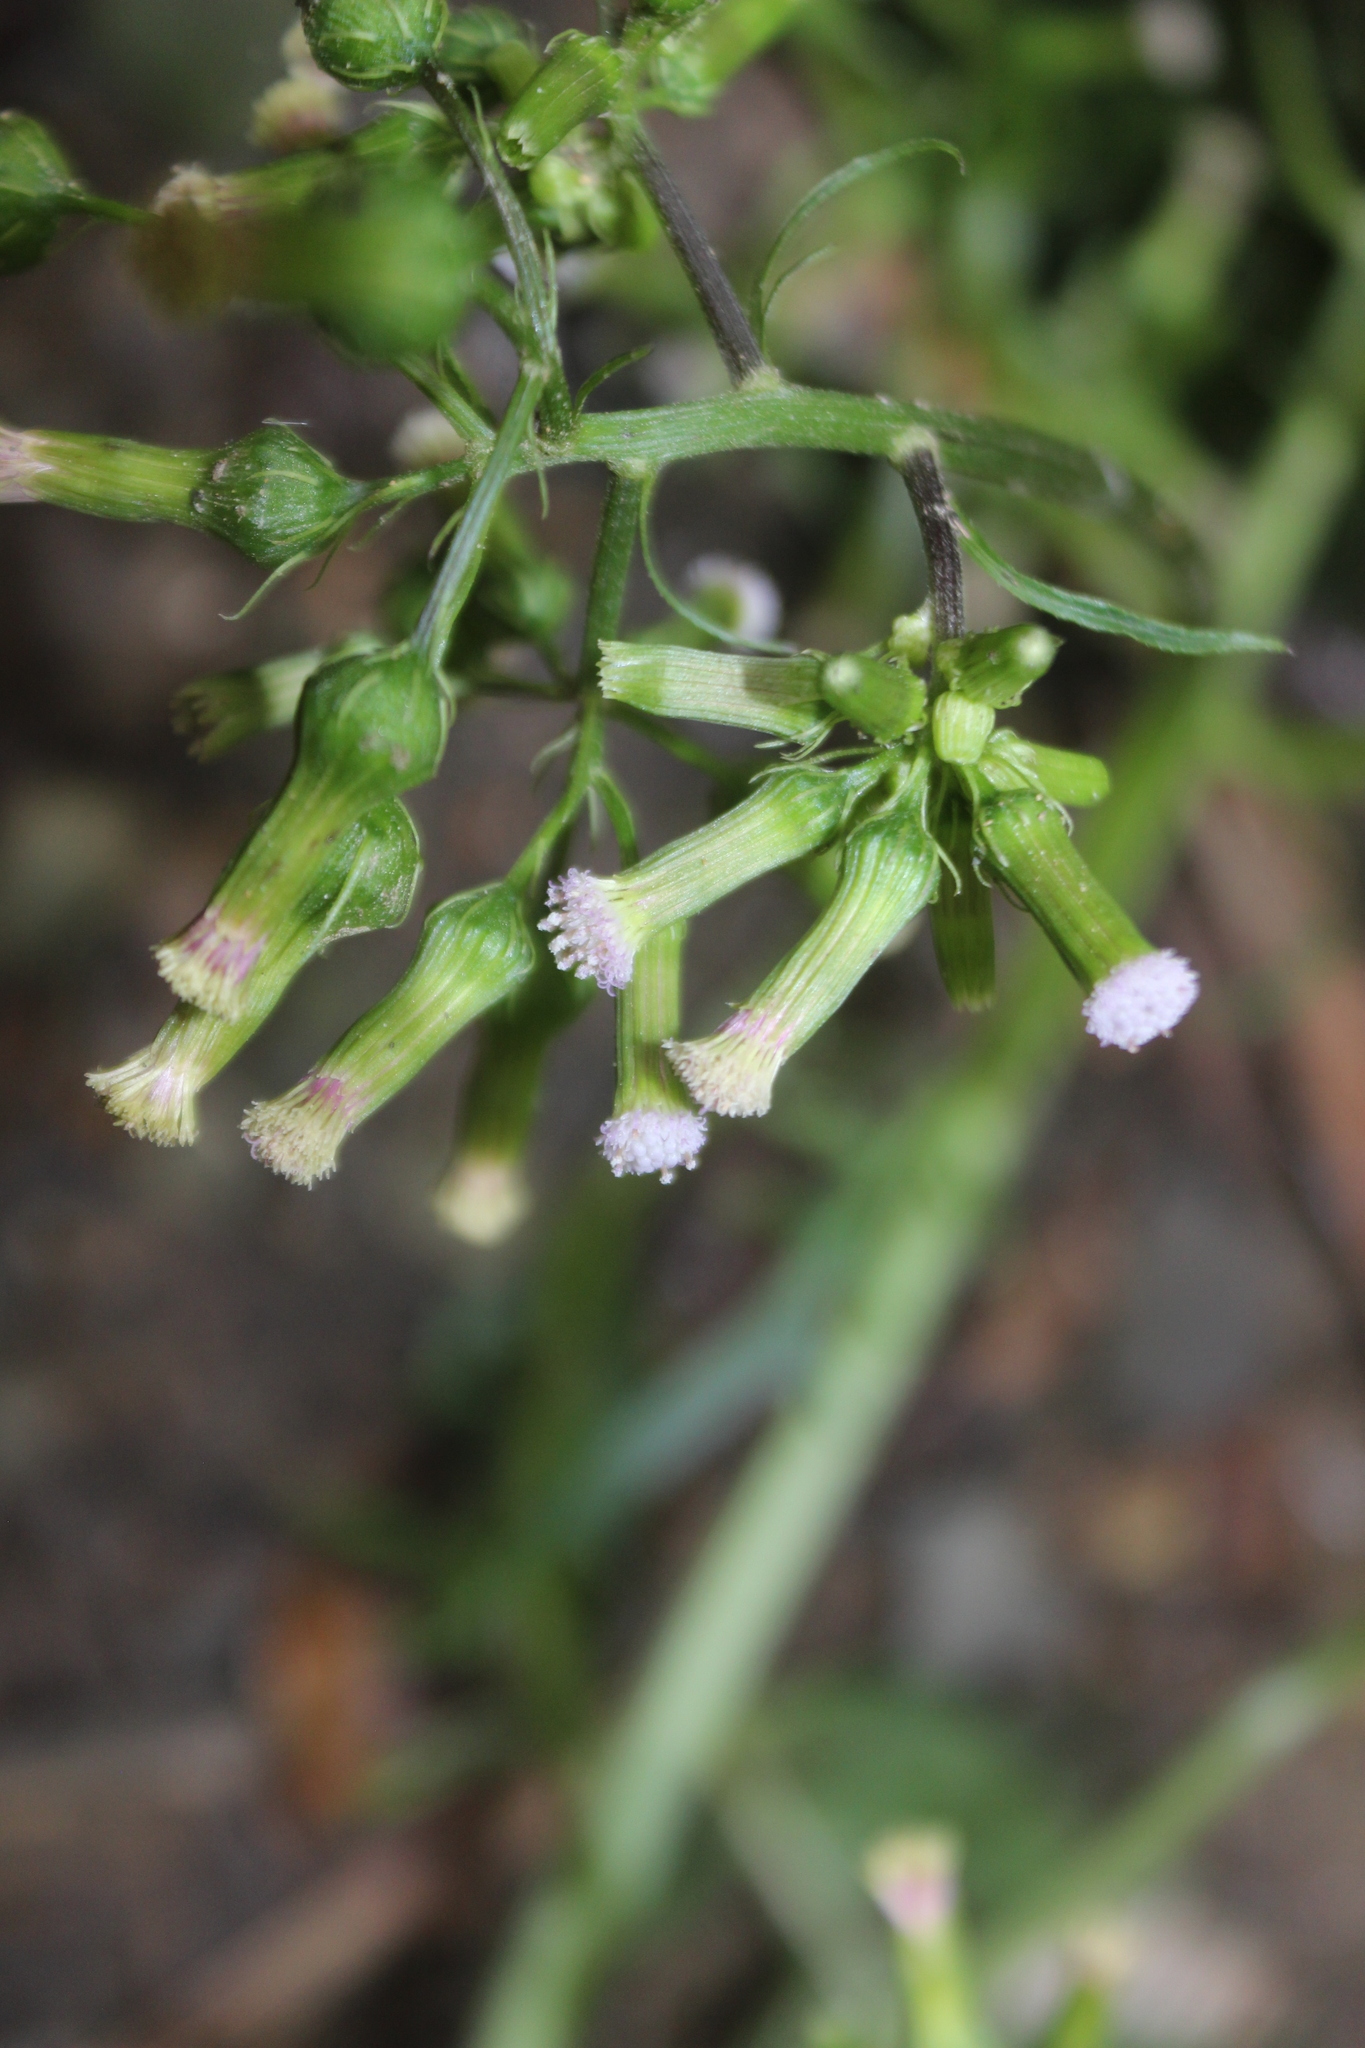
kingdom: Plantae
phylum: Tracheophyta
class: Magnoliopsida
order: Asterales
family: Asteraceae
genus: Erechtites
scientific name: Erechtites valerianifolius
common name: Tropical burnweed
